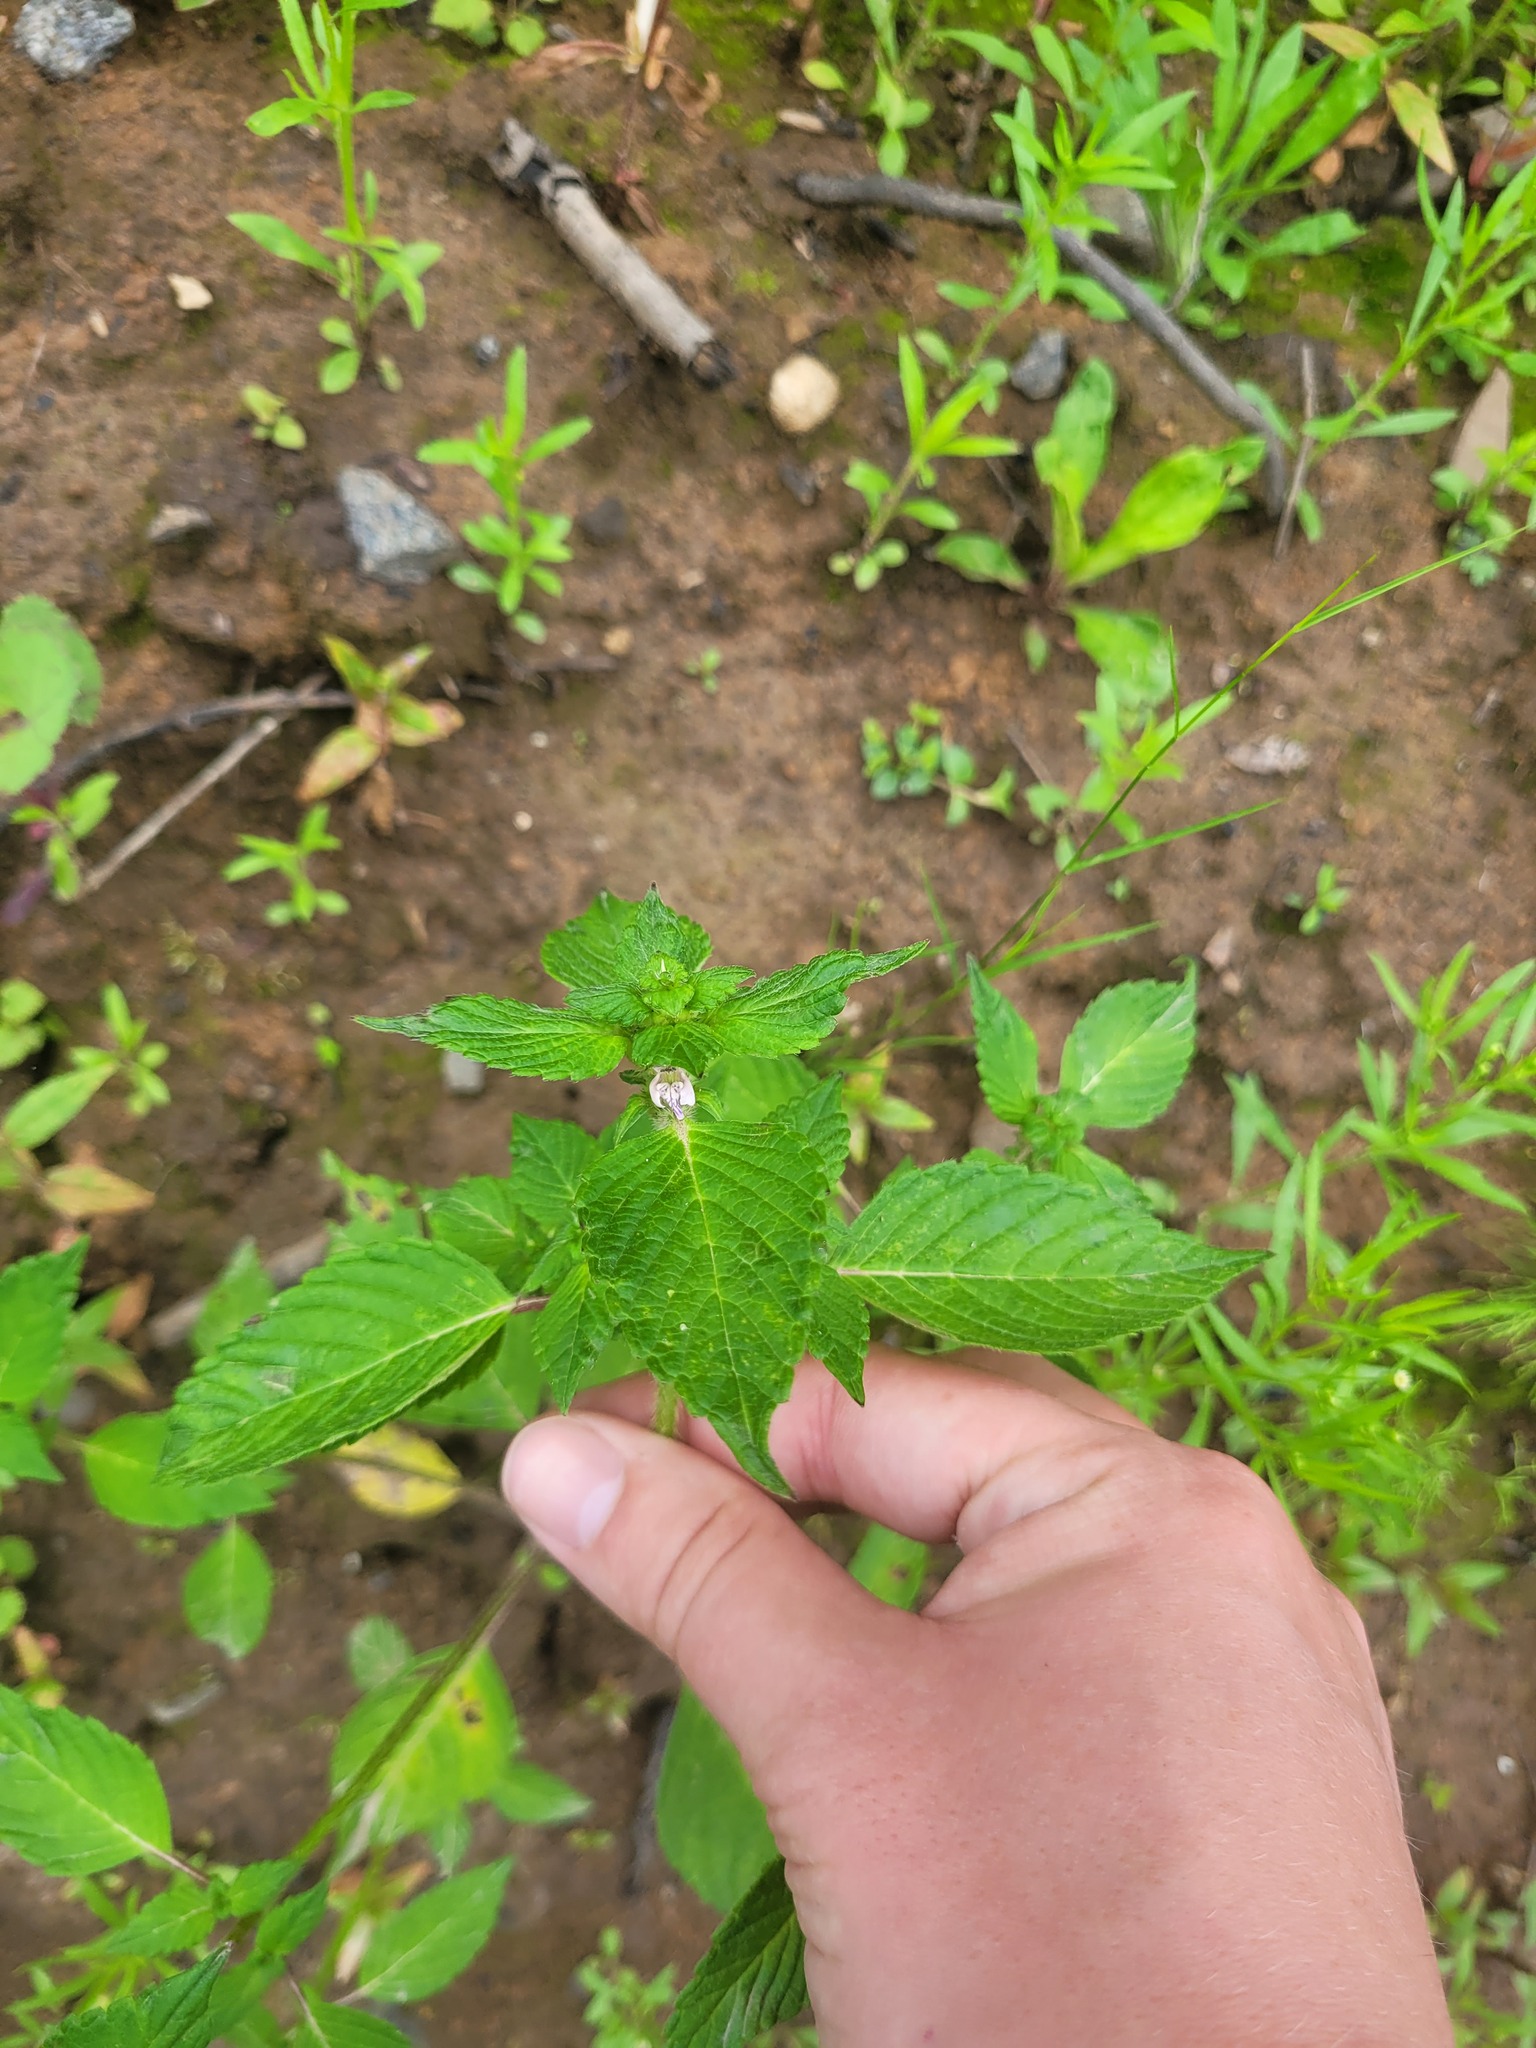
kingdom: Plantae
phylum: Tracheophyta
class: Magnoliopsida
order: Lamiales
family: Lamiaceae
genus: Galeopsis
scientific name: Galeopsis bifida
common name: Bifid hemp-nettle
